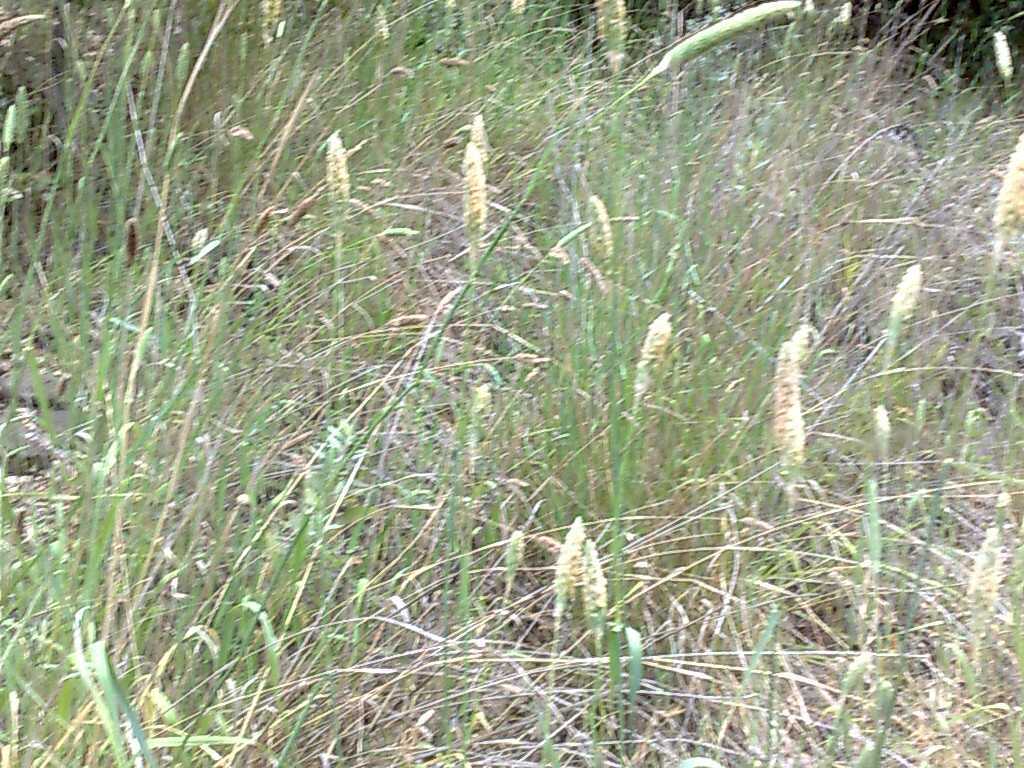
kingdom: Plantae
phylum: Tracheophyta
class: Liliopsida
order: Poales
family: Poaceae
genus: Phalaris
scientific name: Phalaris aquatica
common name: Bulbous canary-grass
